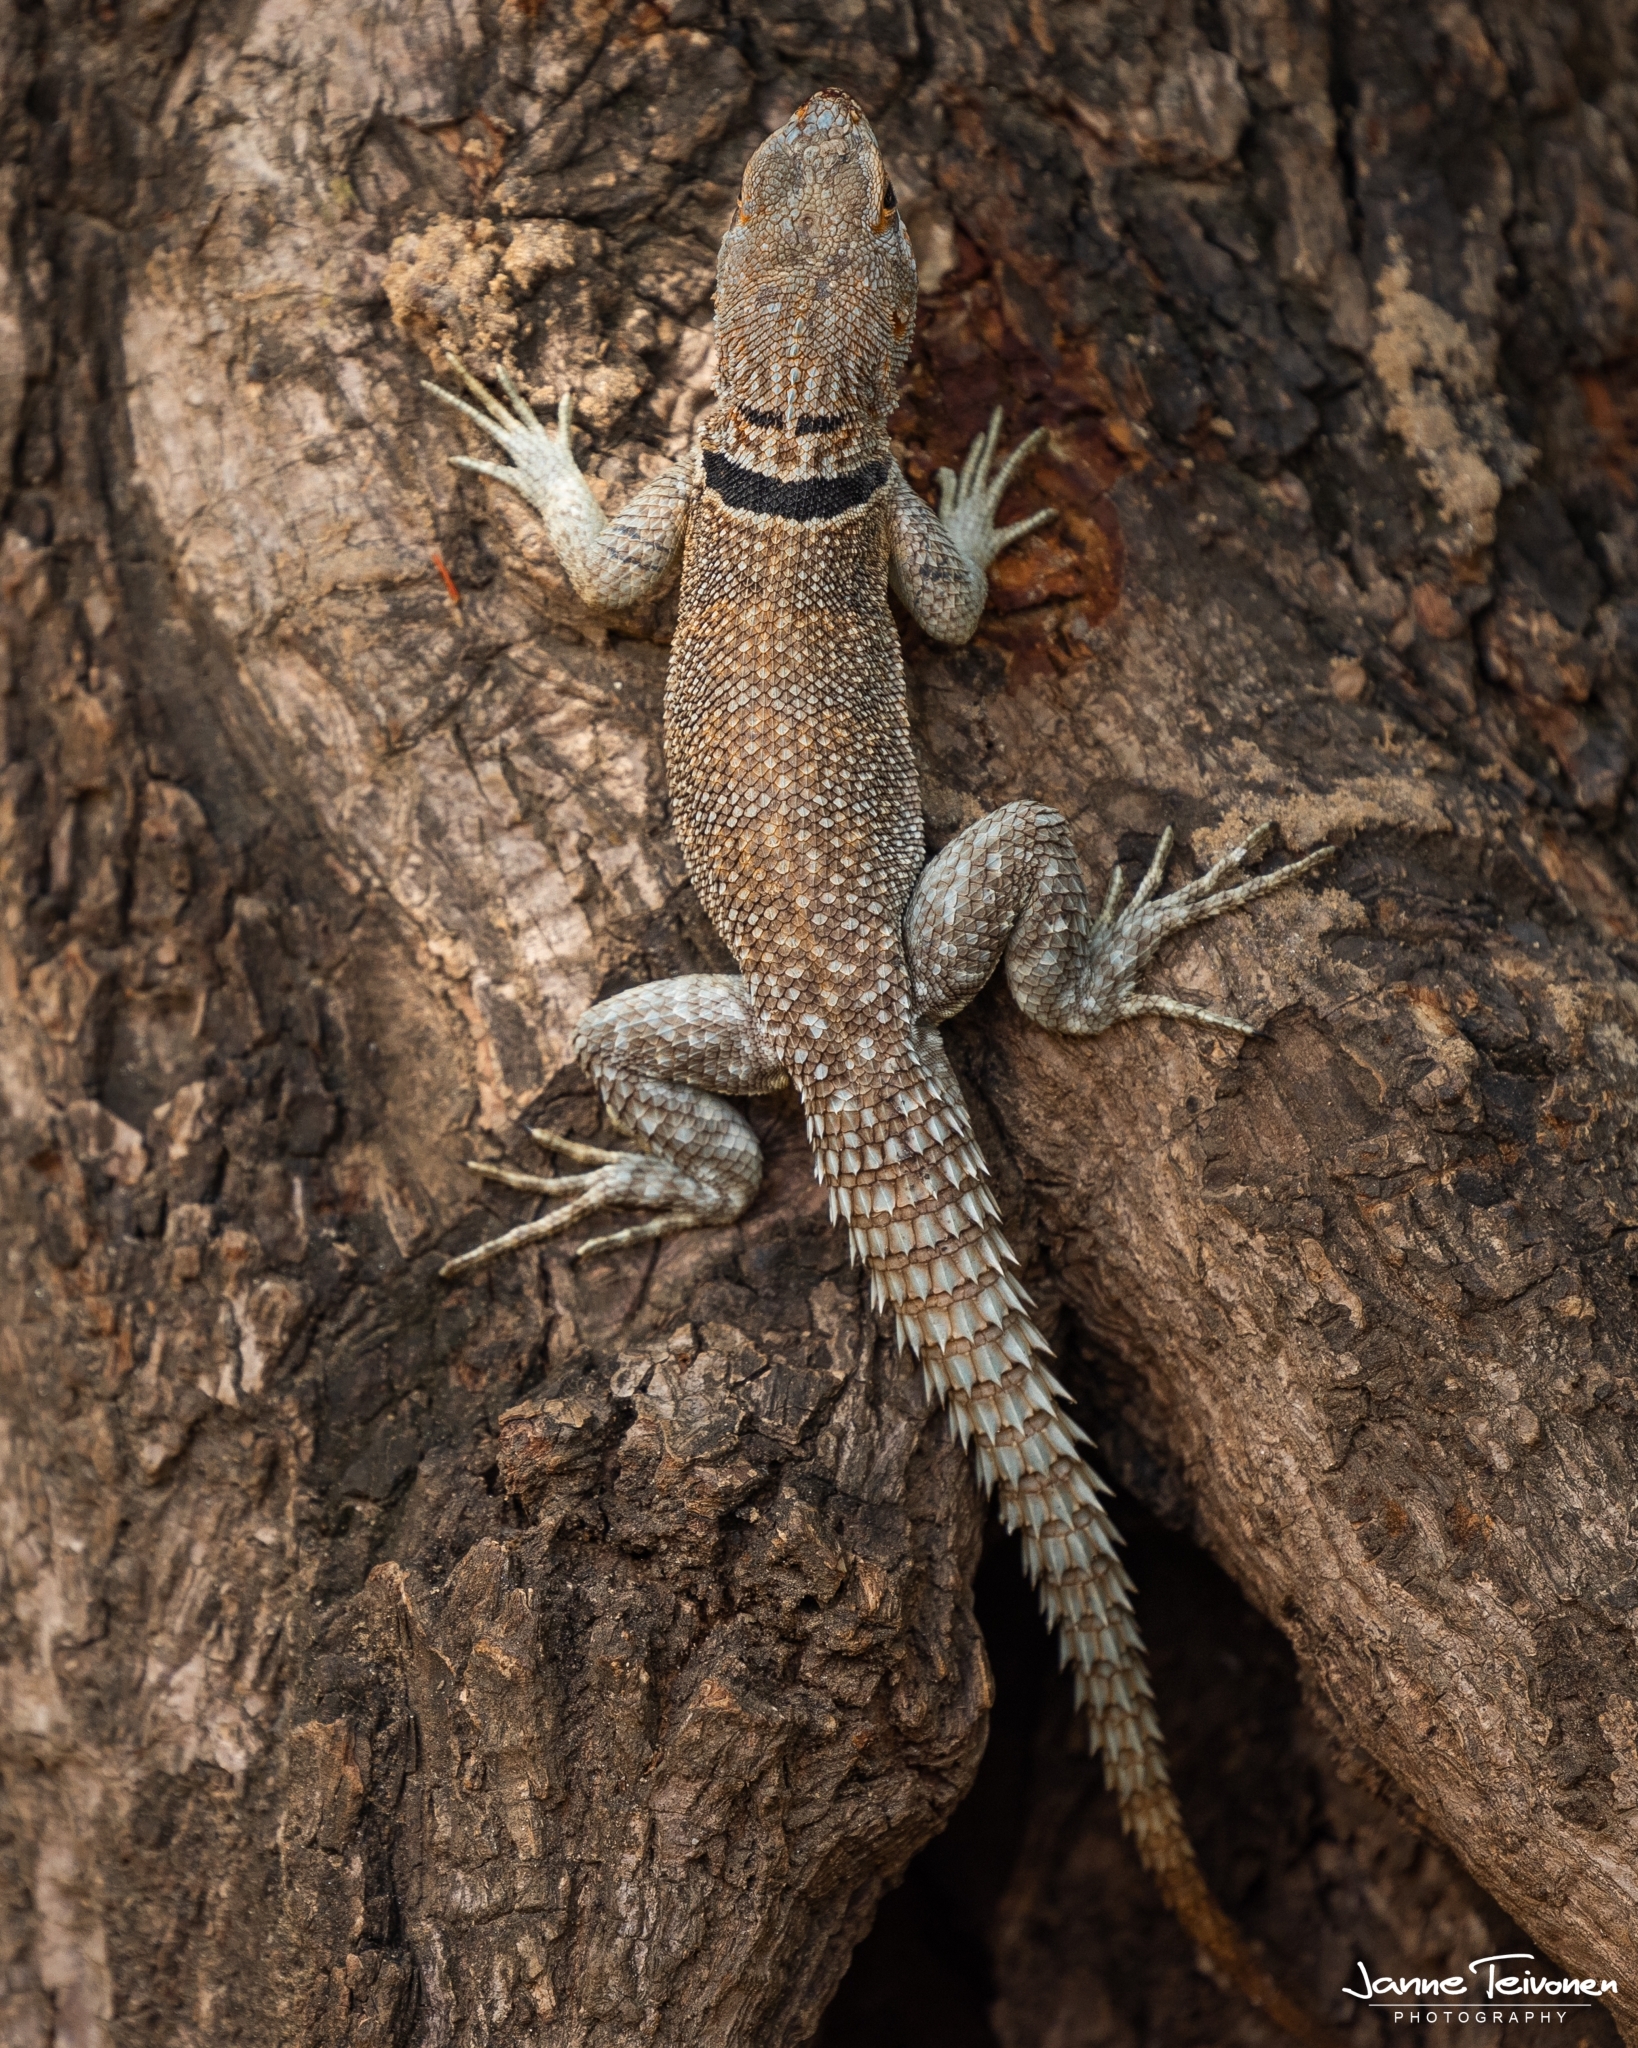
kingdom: Animalia
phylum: Chordata
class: Squamata
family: Opluridae
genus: Oplurus
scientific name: Oplurus cuvieri
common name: Cuvier's madagascar swift
